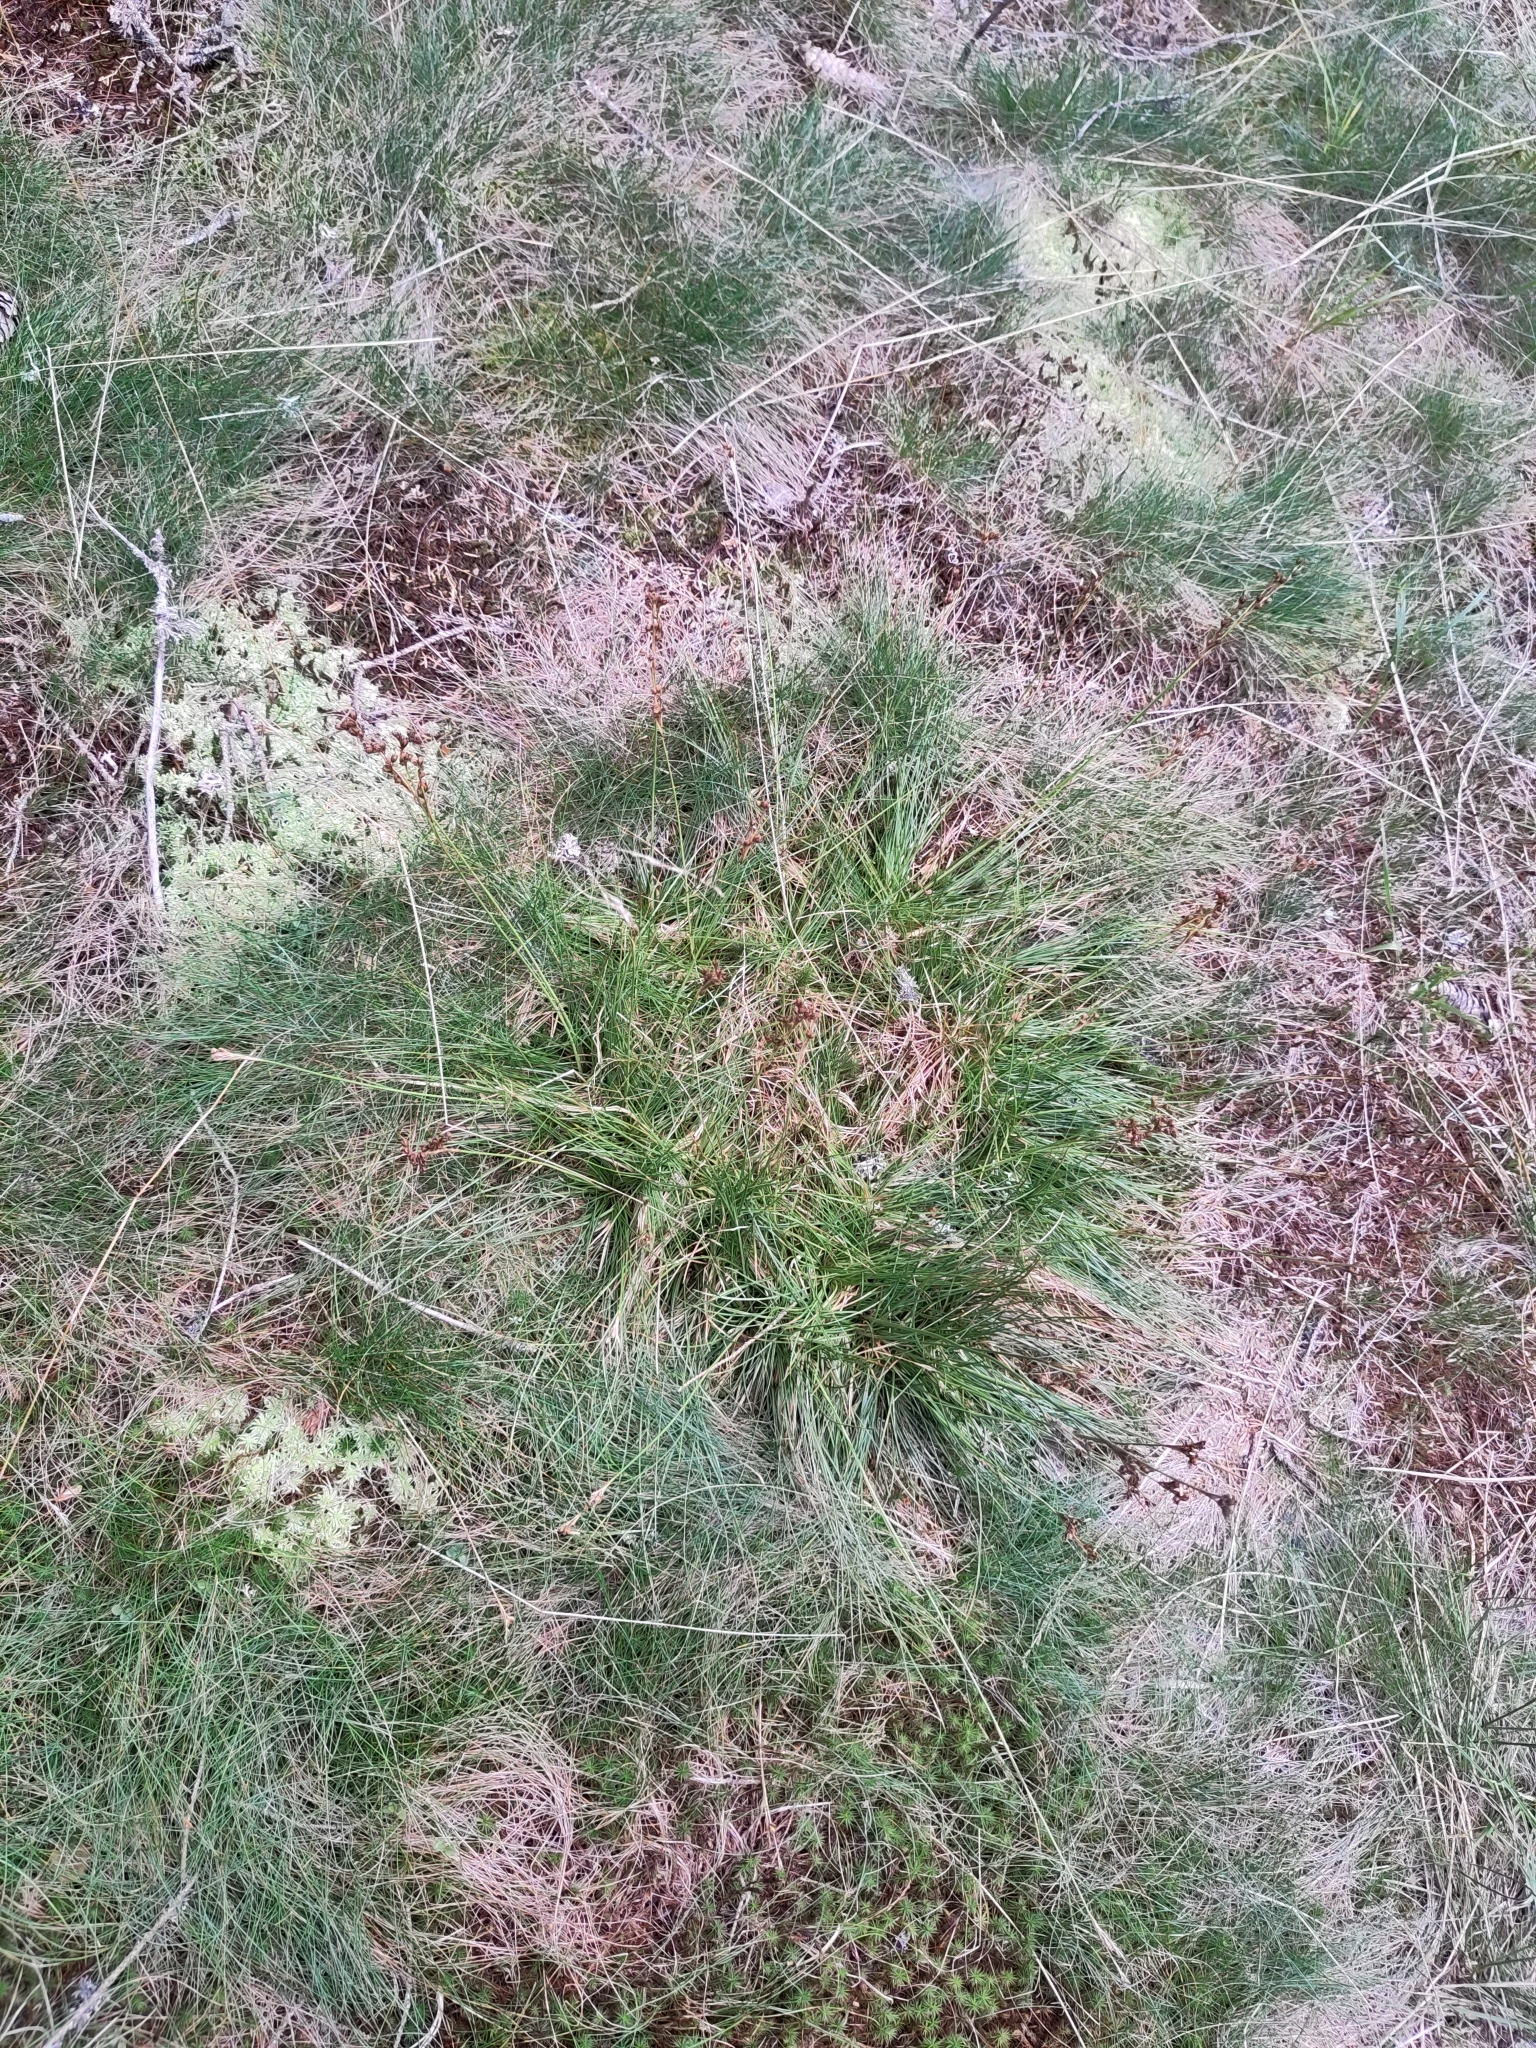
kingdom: Plantae
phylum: Tracheophyta
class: Liliopsida
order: Poales
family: Juncaceae
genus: Juncus
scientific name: Juncus squarrosus
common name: Heath rush
